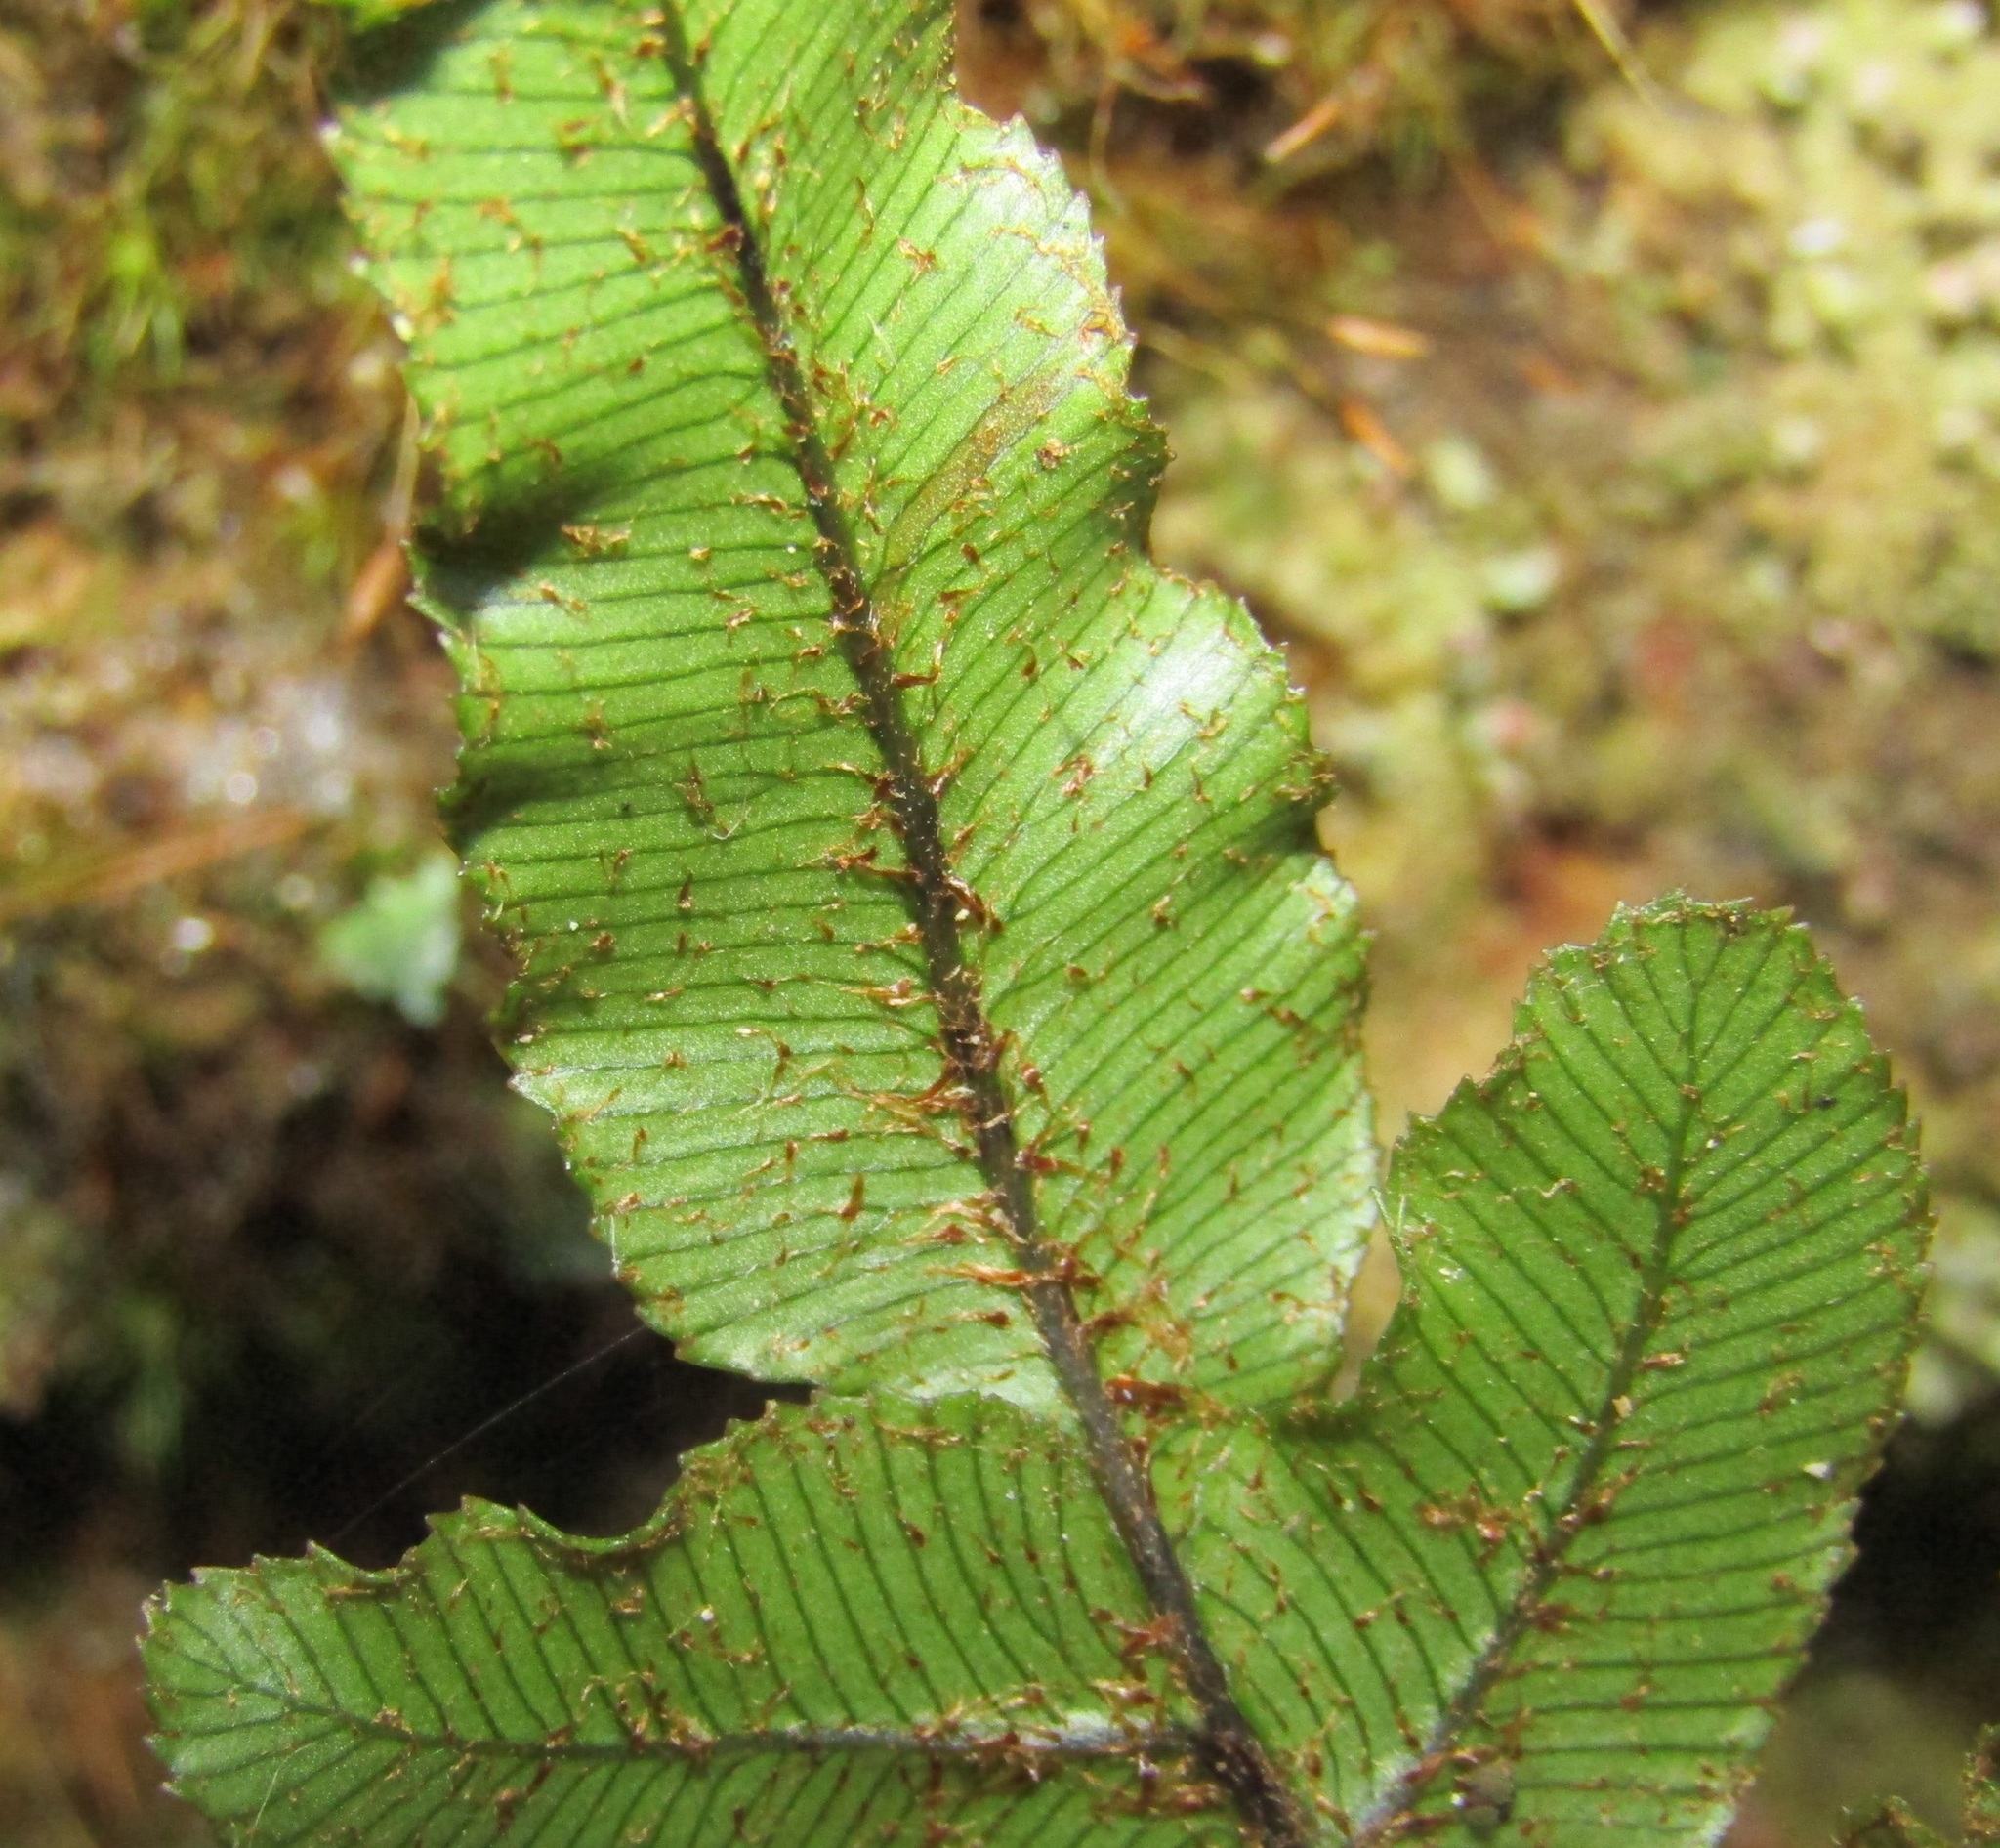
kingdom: Plantae
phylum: Tracheophyta
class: Polypodiopsida
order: Polypodiales
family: Blechnaceae
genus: Parablechnum
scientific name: Parablechnum procerum
